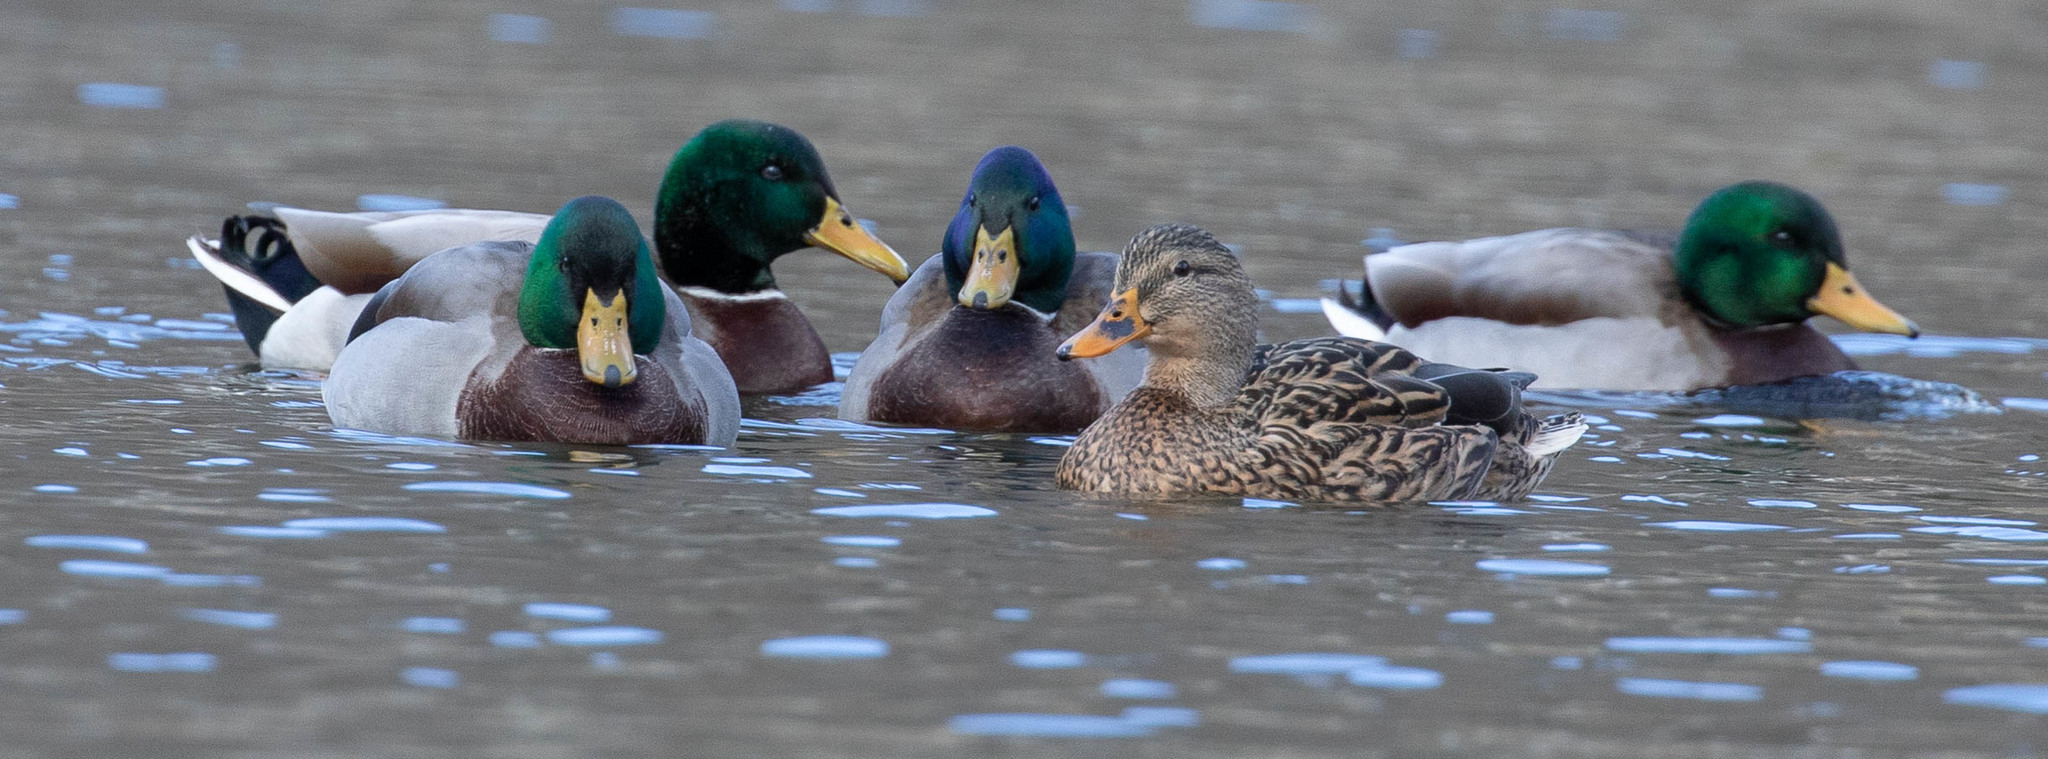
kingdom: Animalia
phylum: Chordata
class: Aves
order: Anseriformes
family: Anatidae
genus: Anas
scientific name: Anas platyrhynchos
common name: Mallard
